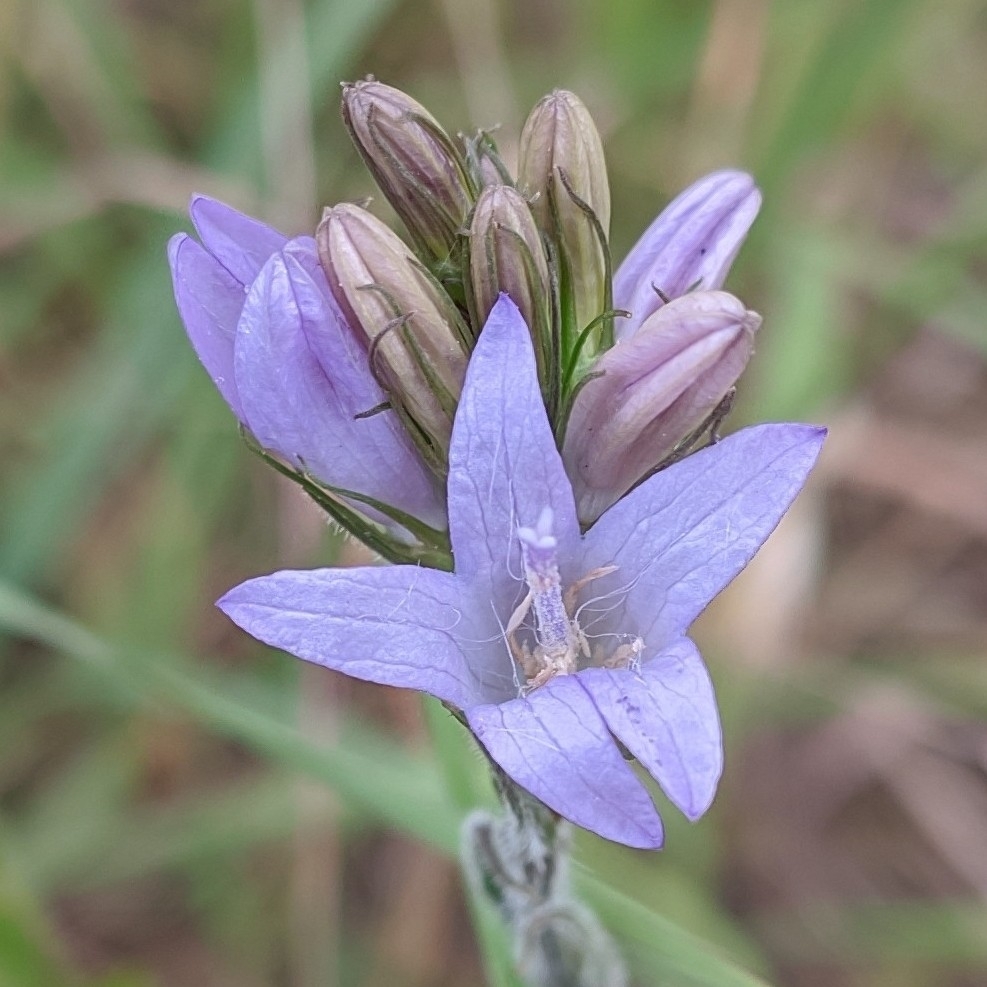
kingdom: Plantae
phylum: Tracheophyta
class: Magnoliopsida
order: Asterales
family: Campanulaceae
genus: Campanula
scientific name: Campanula rapunculus
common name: Rampion bellflower
